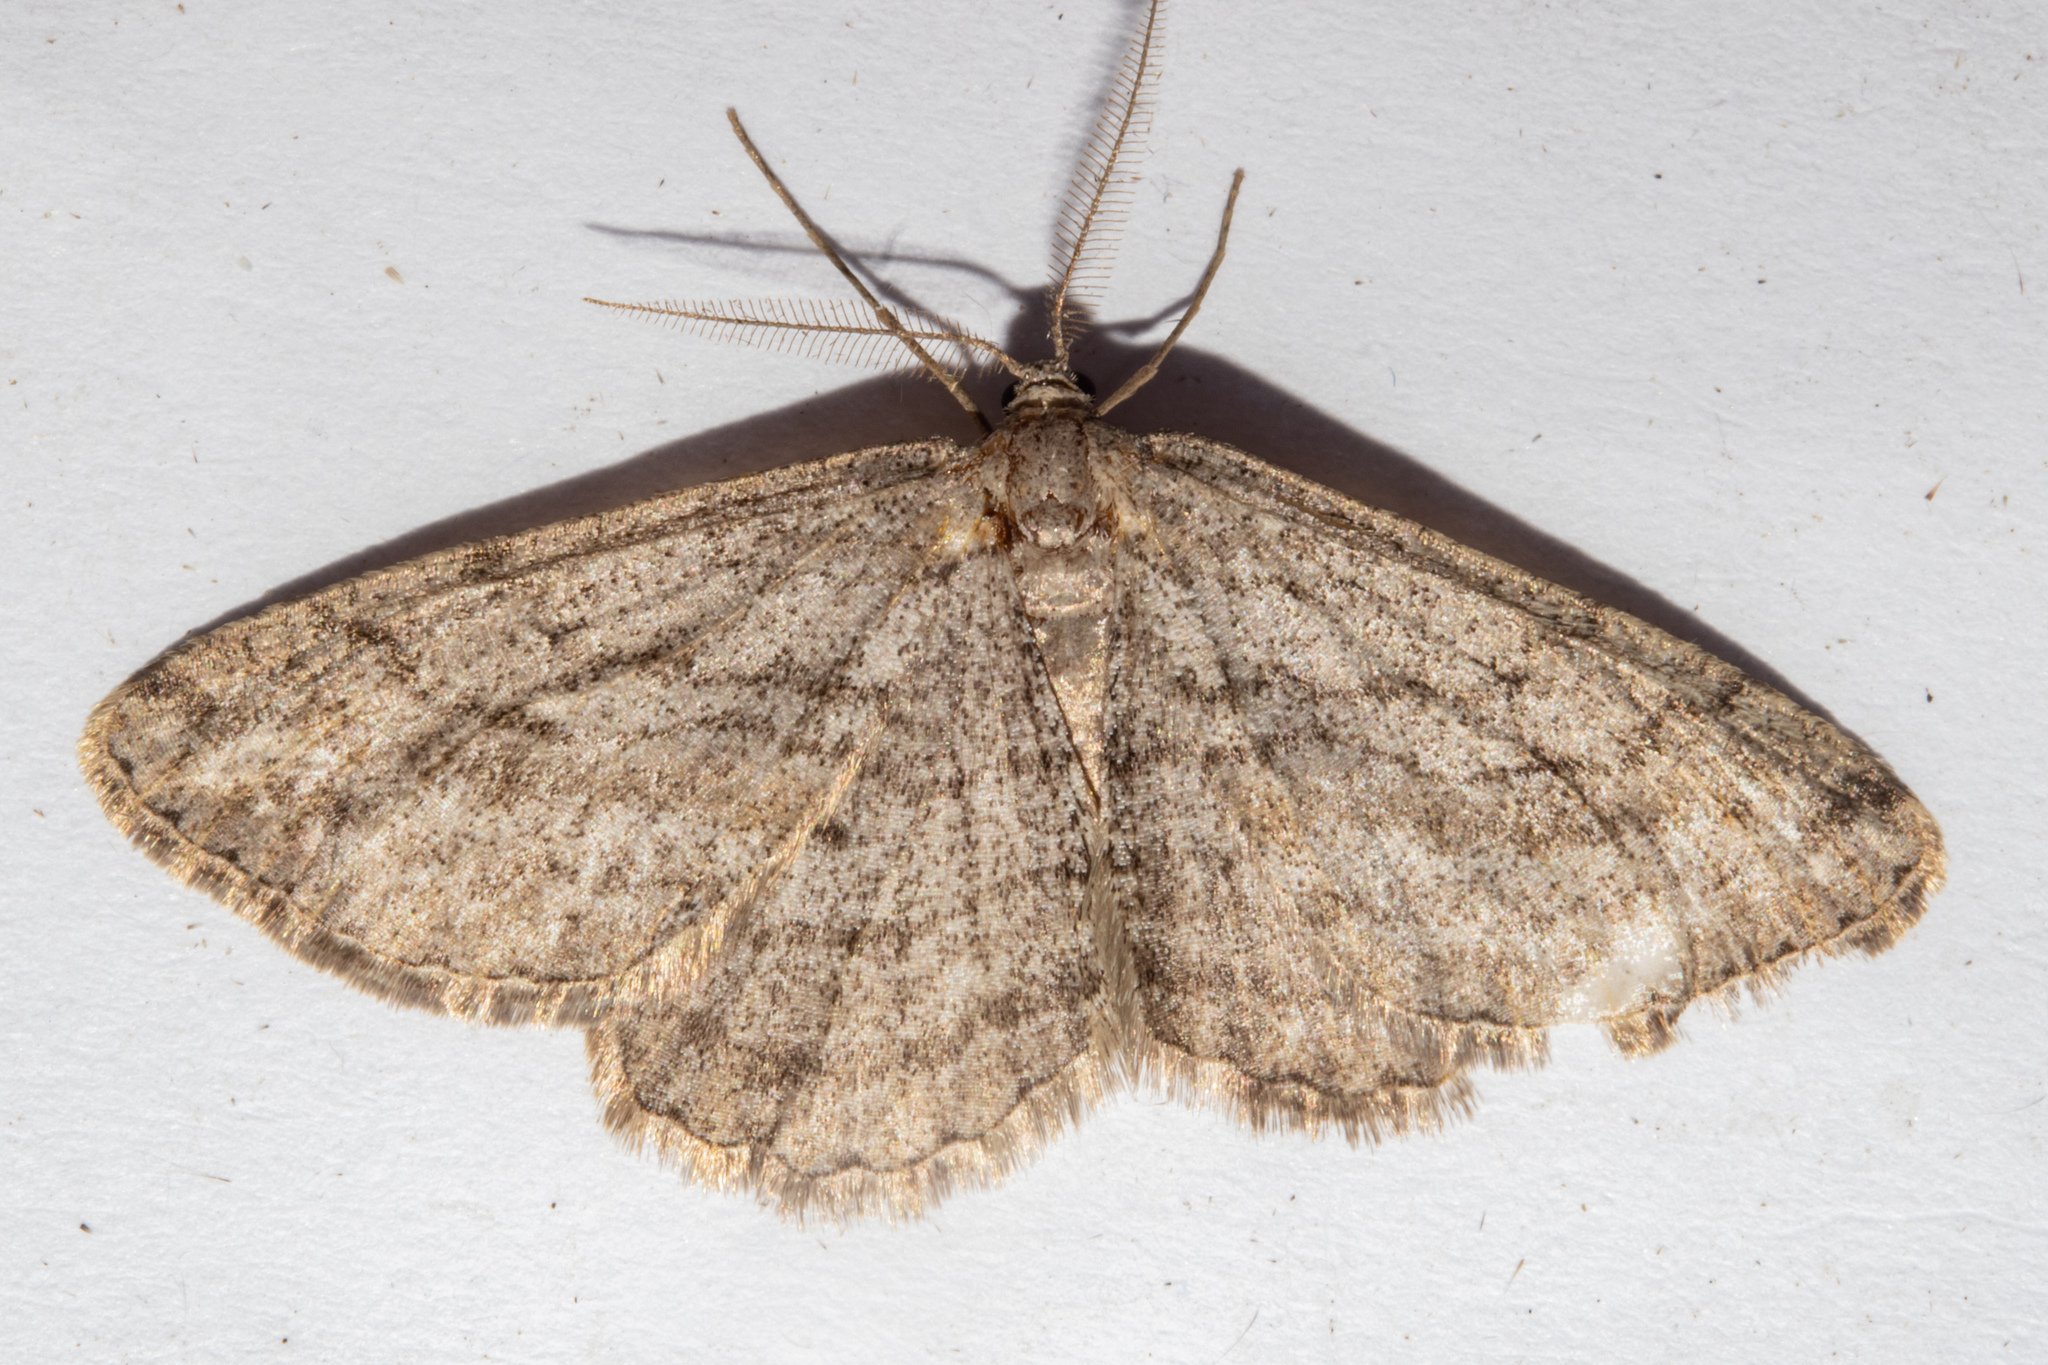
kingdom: Animalia
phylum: Arthropoda
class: Insecta
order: Lepidoptera
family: Geometridae
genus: Zermizinga
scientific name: Zermizinga indocilisaria
